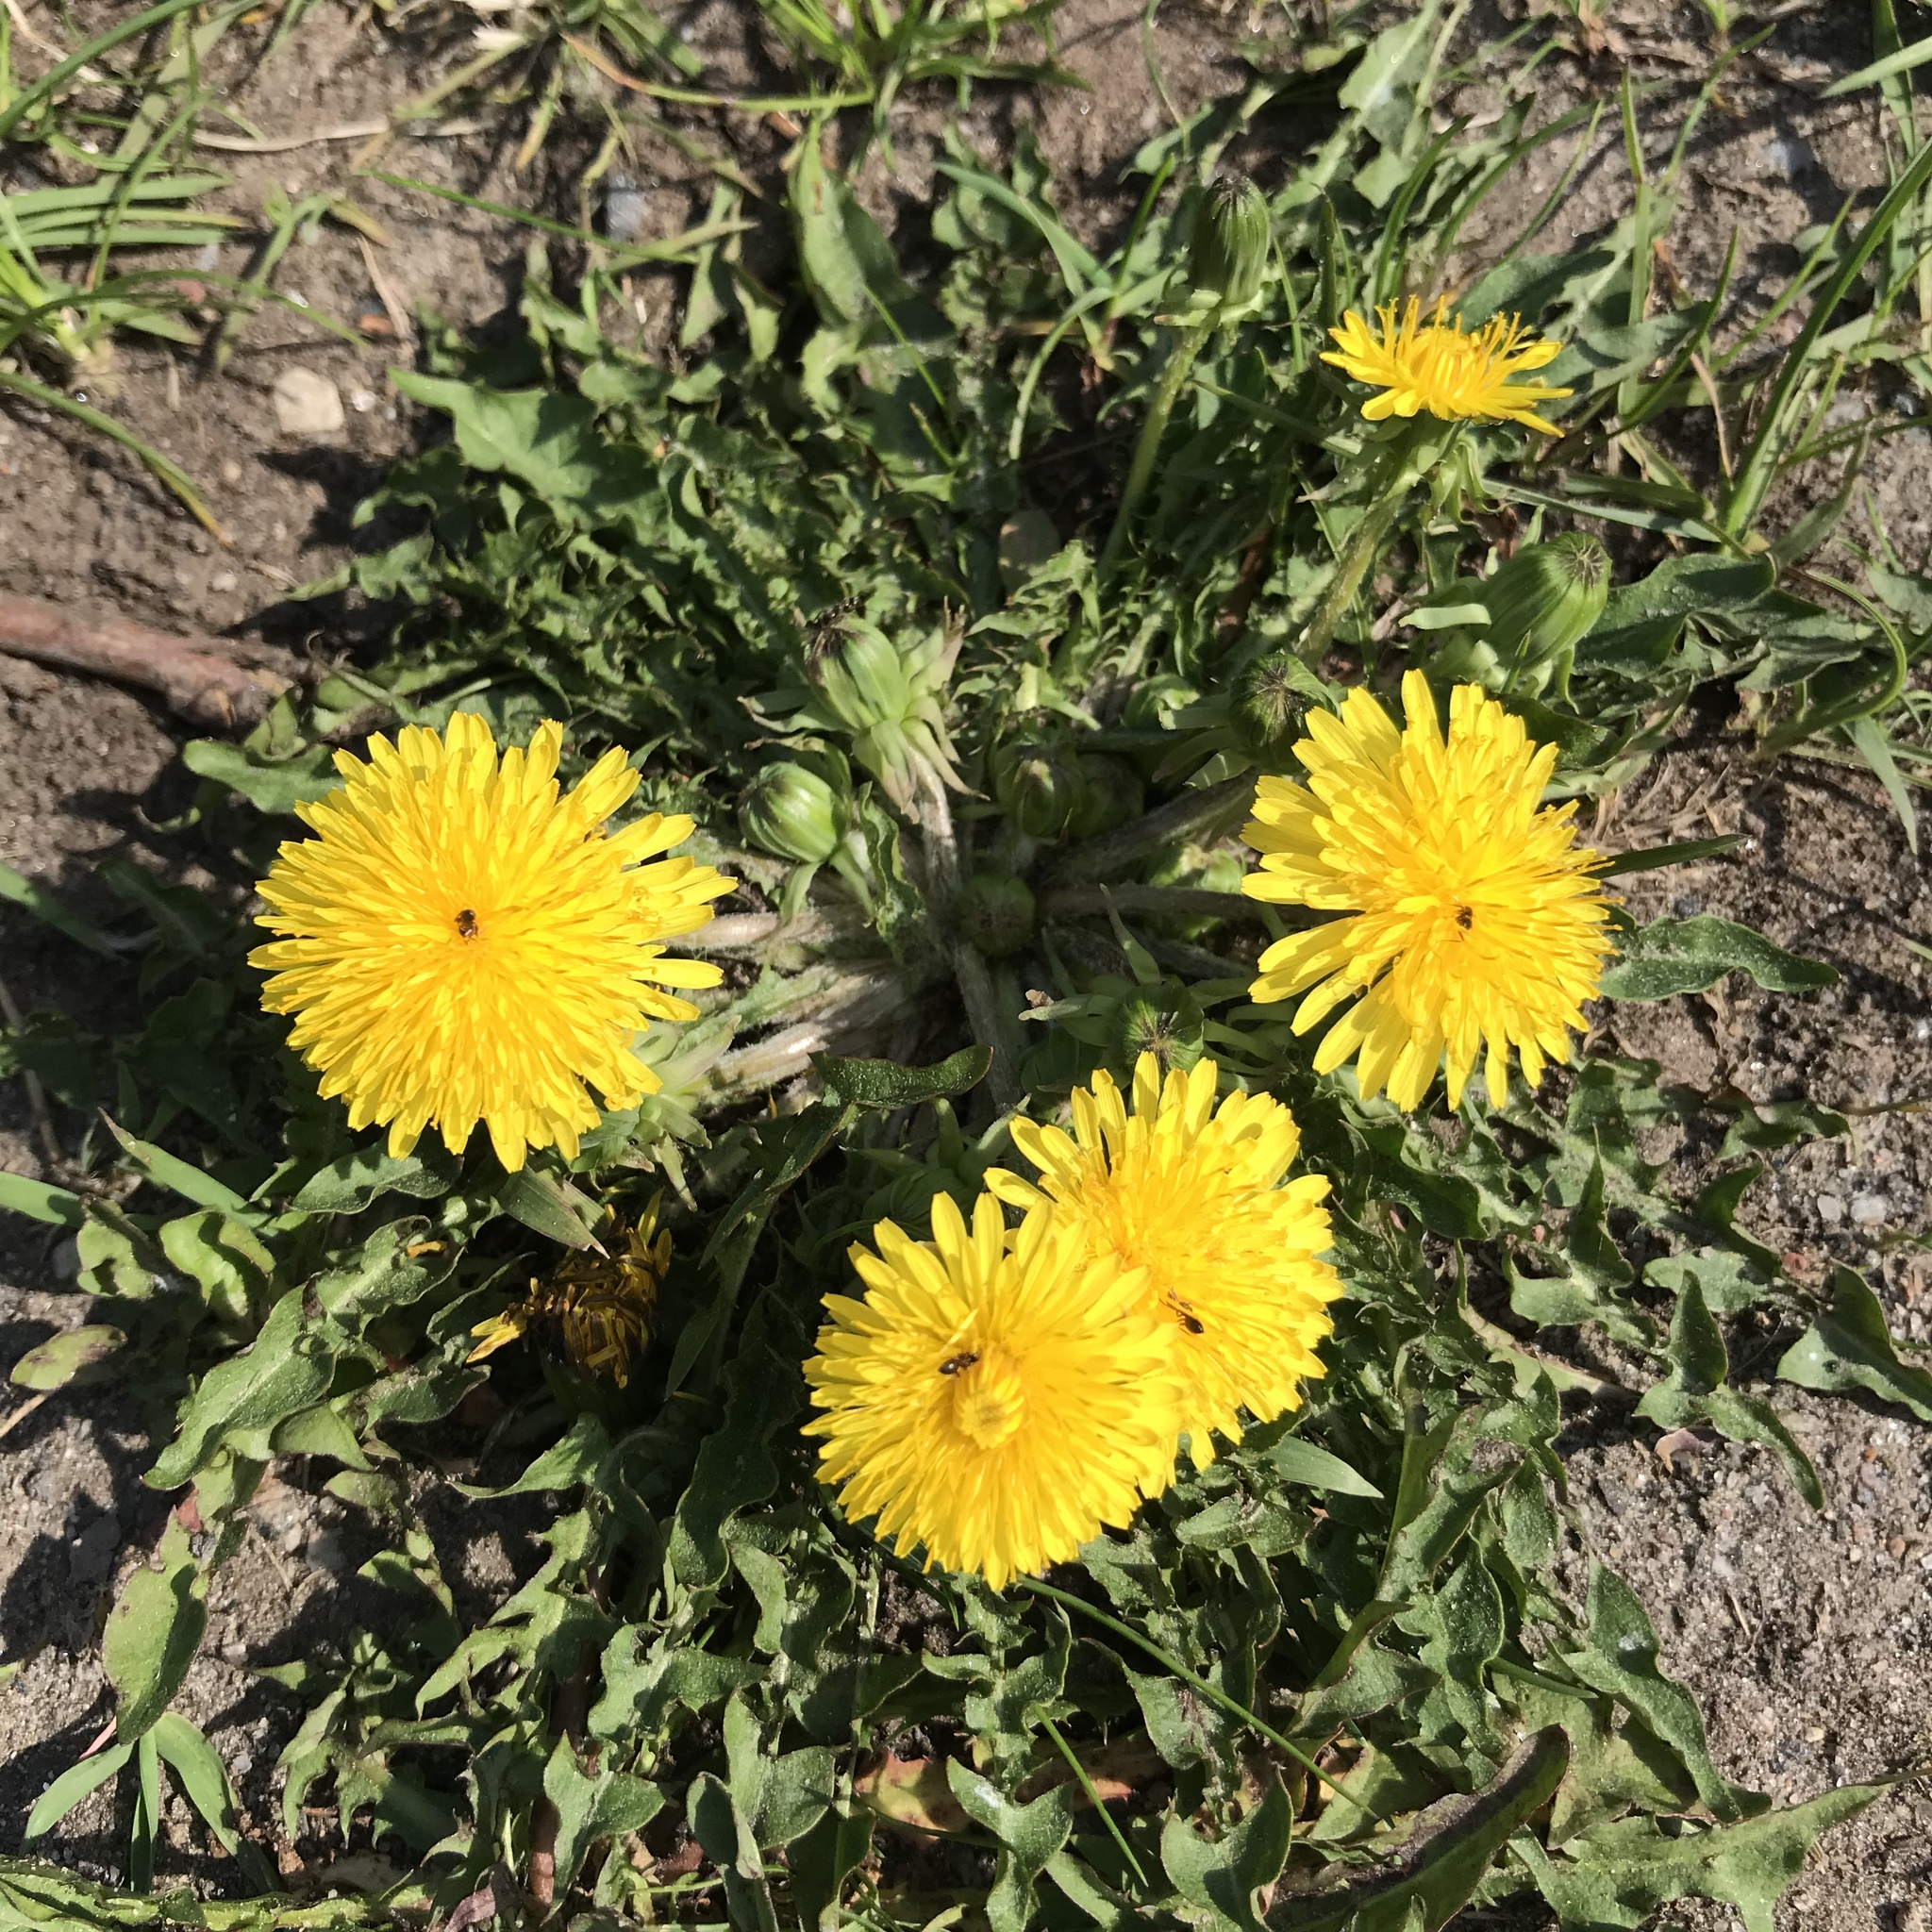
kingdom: Plantae
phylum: Tracheophyta
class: Magnoliopsida
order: Asterales
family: Asteraceae
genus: Taraxacum
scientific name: Taraxacum officinale
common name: Common dandelion
